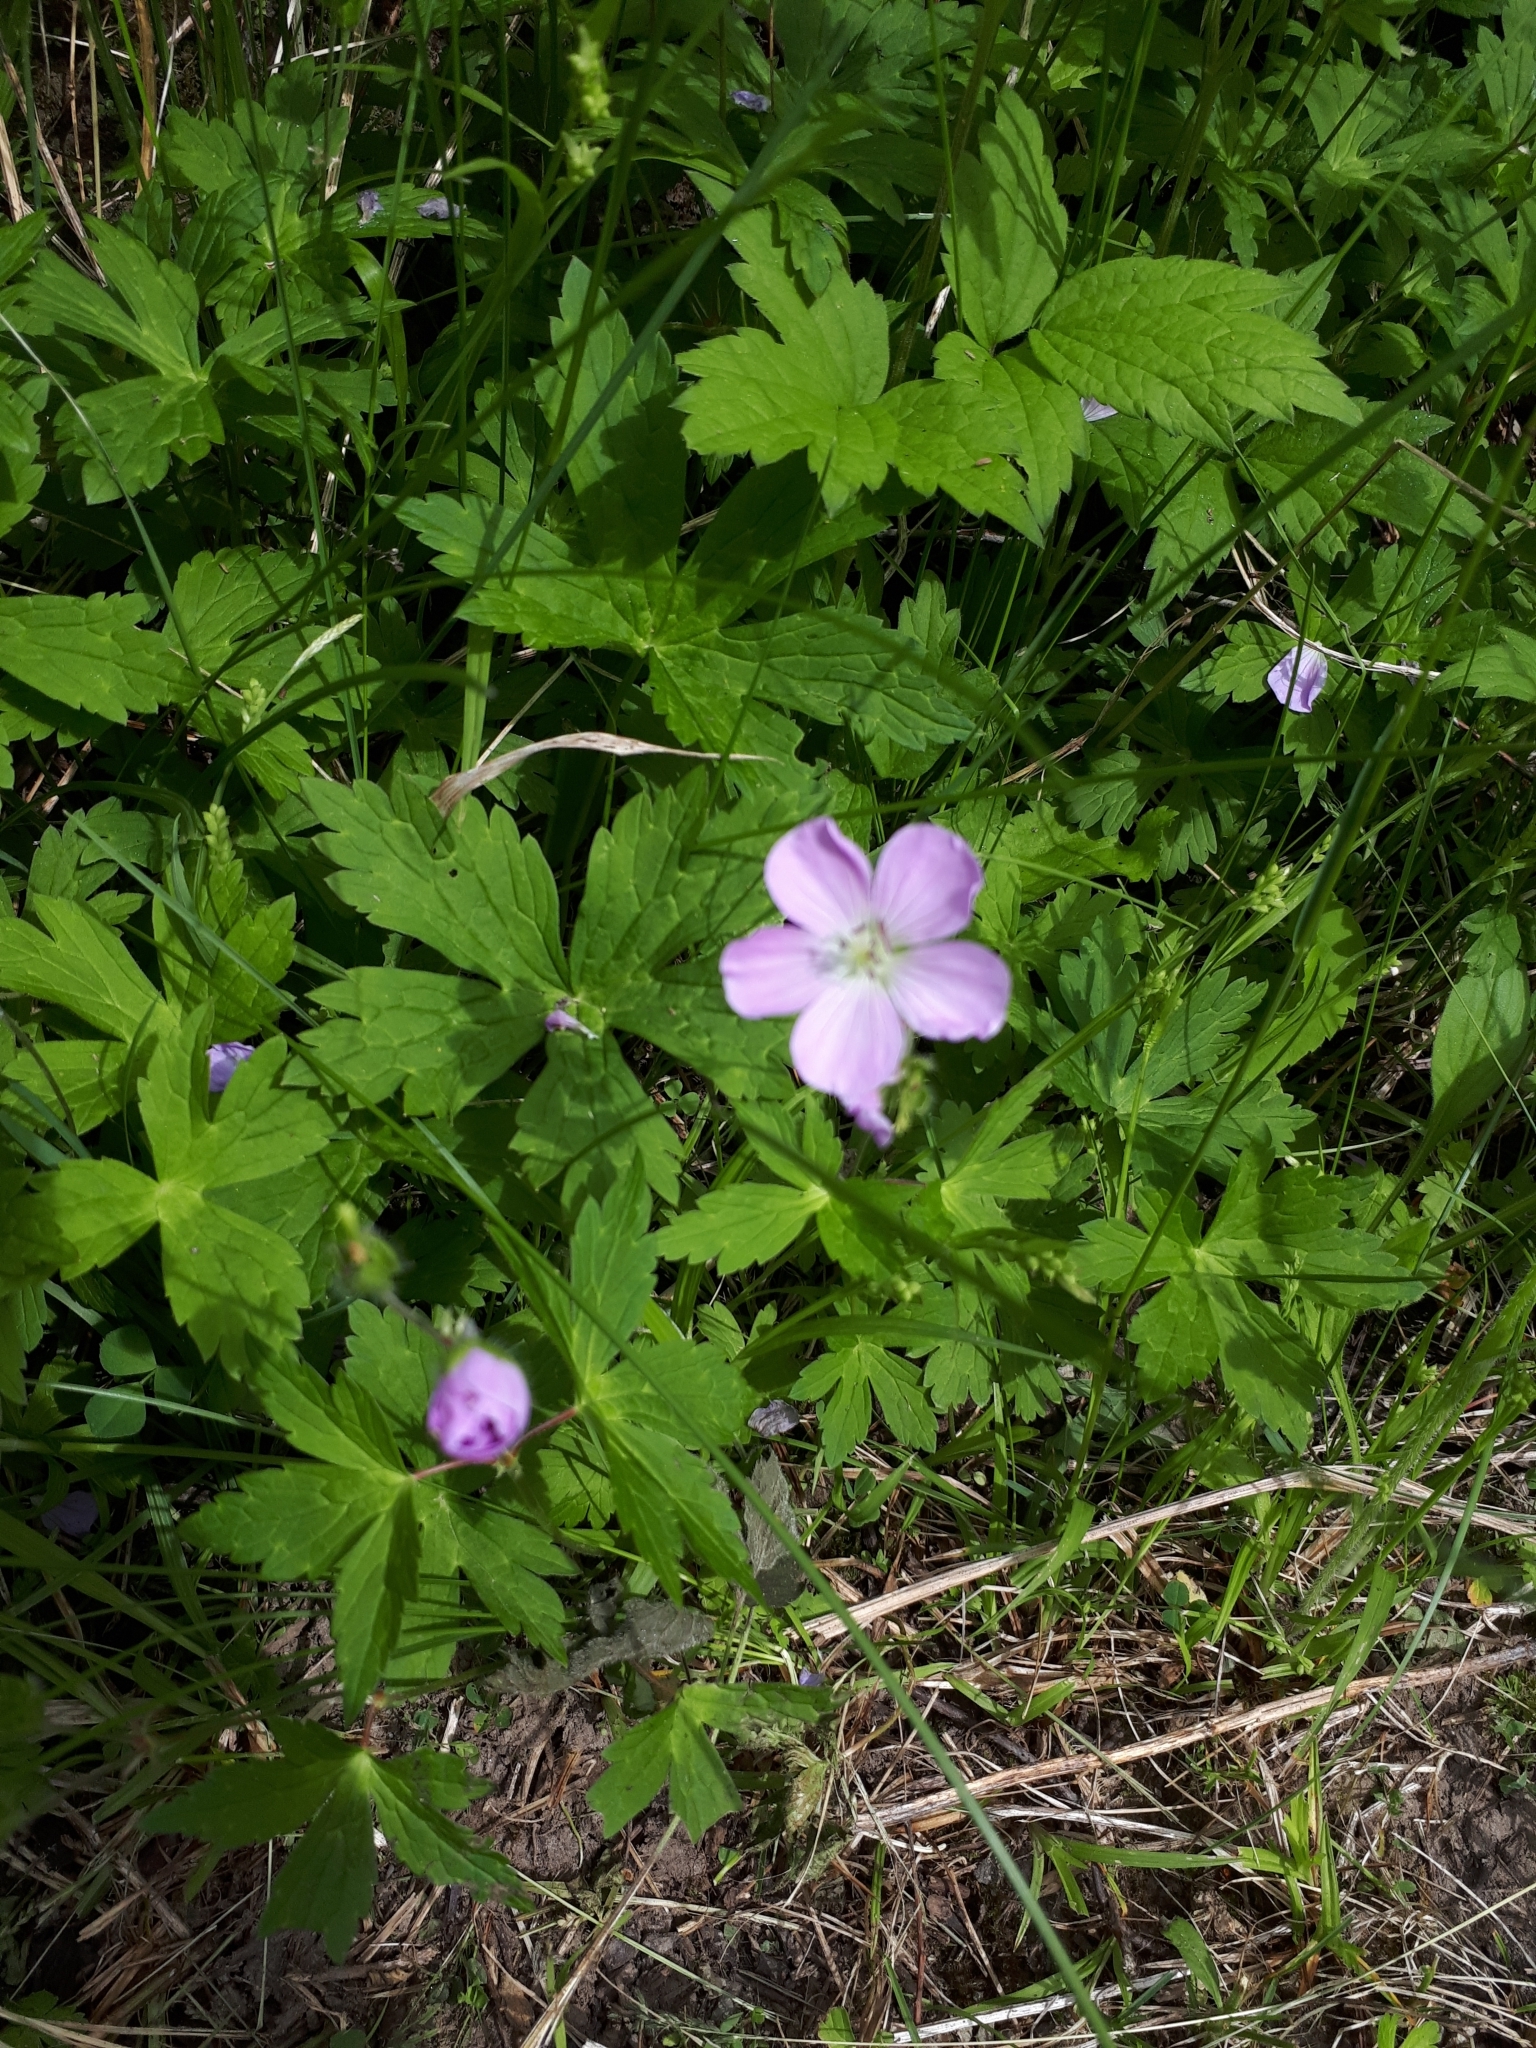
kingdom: Plantae
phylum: Tracheophyta
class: Magnoliopsida
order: Geraniales
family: Geraniaceae
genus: Geranium
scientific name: Geranium maculatum
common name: Spotted geranium
